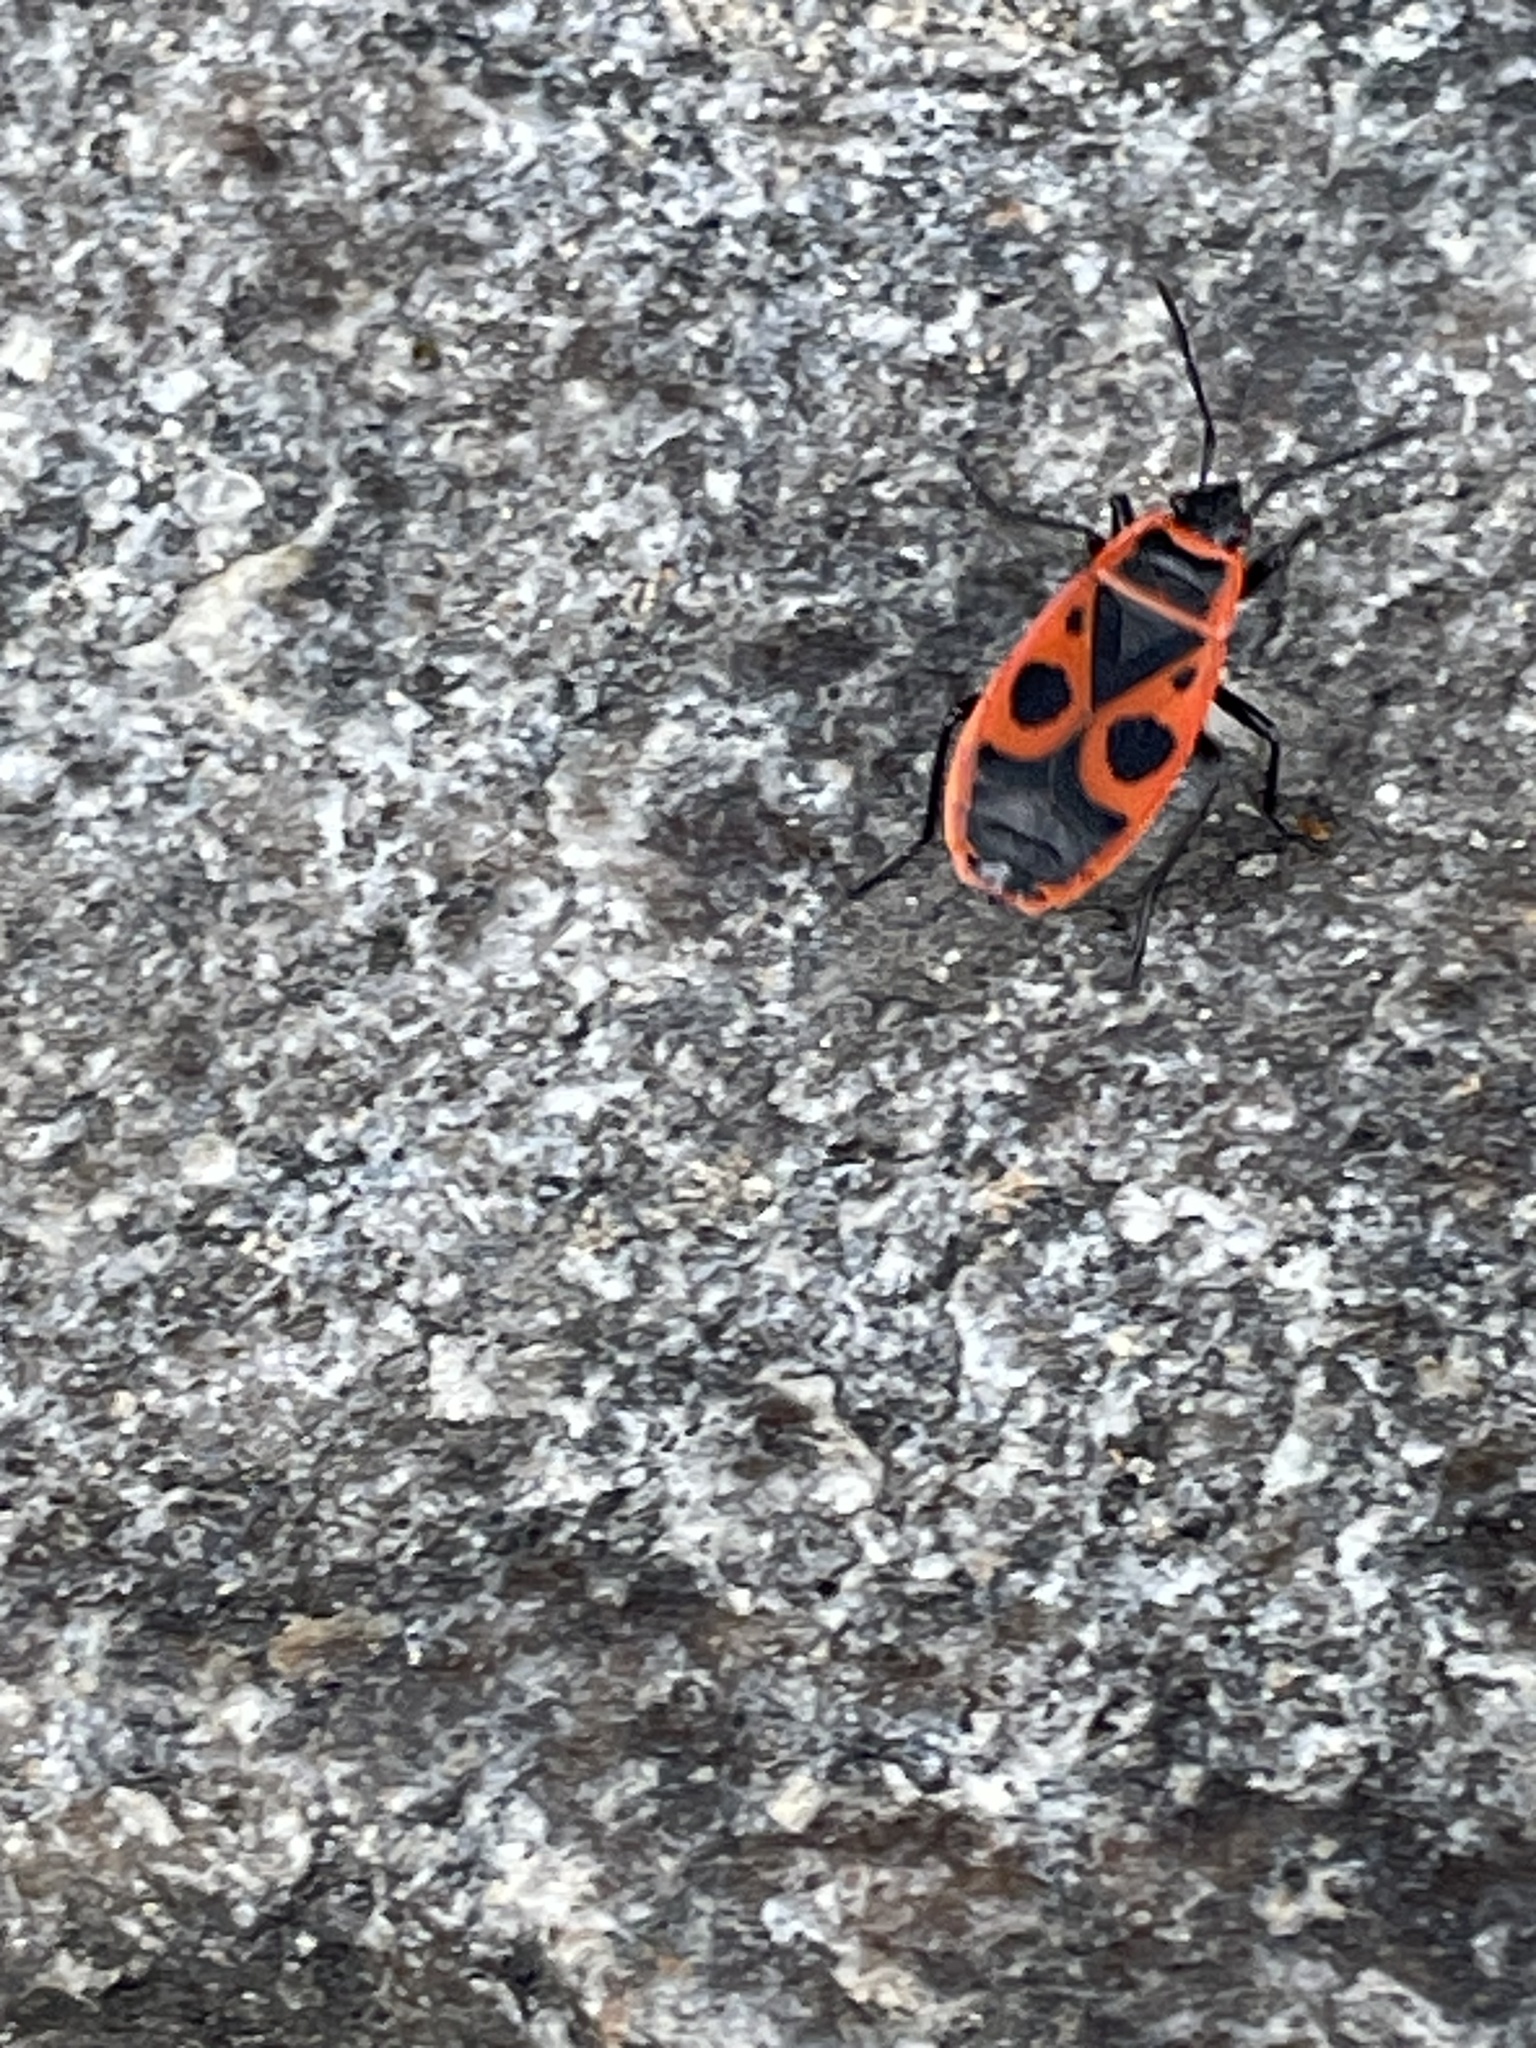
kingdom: Animalia
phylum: Arthropoda
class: Insecta
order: Hemiptera
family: Pyrrhocoridae
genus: Pyrrhocoris
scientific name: Pyrrhocoris apterus
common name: Firebug
